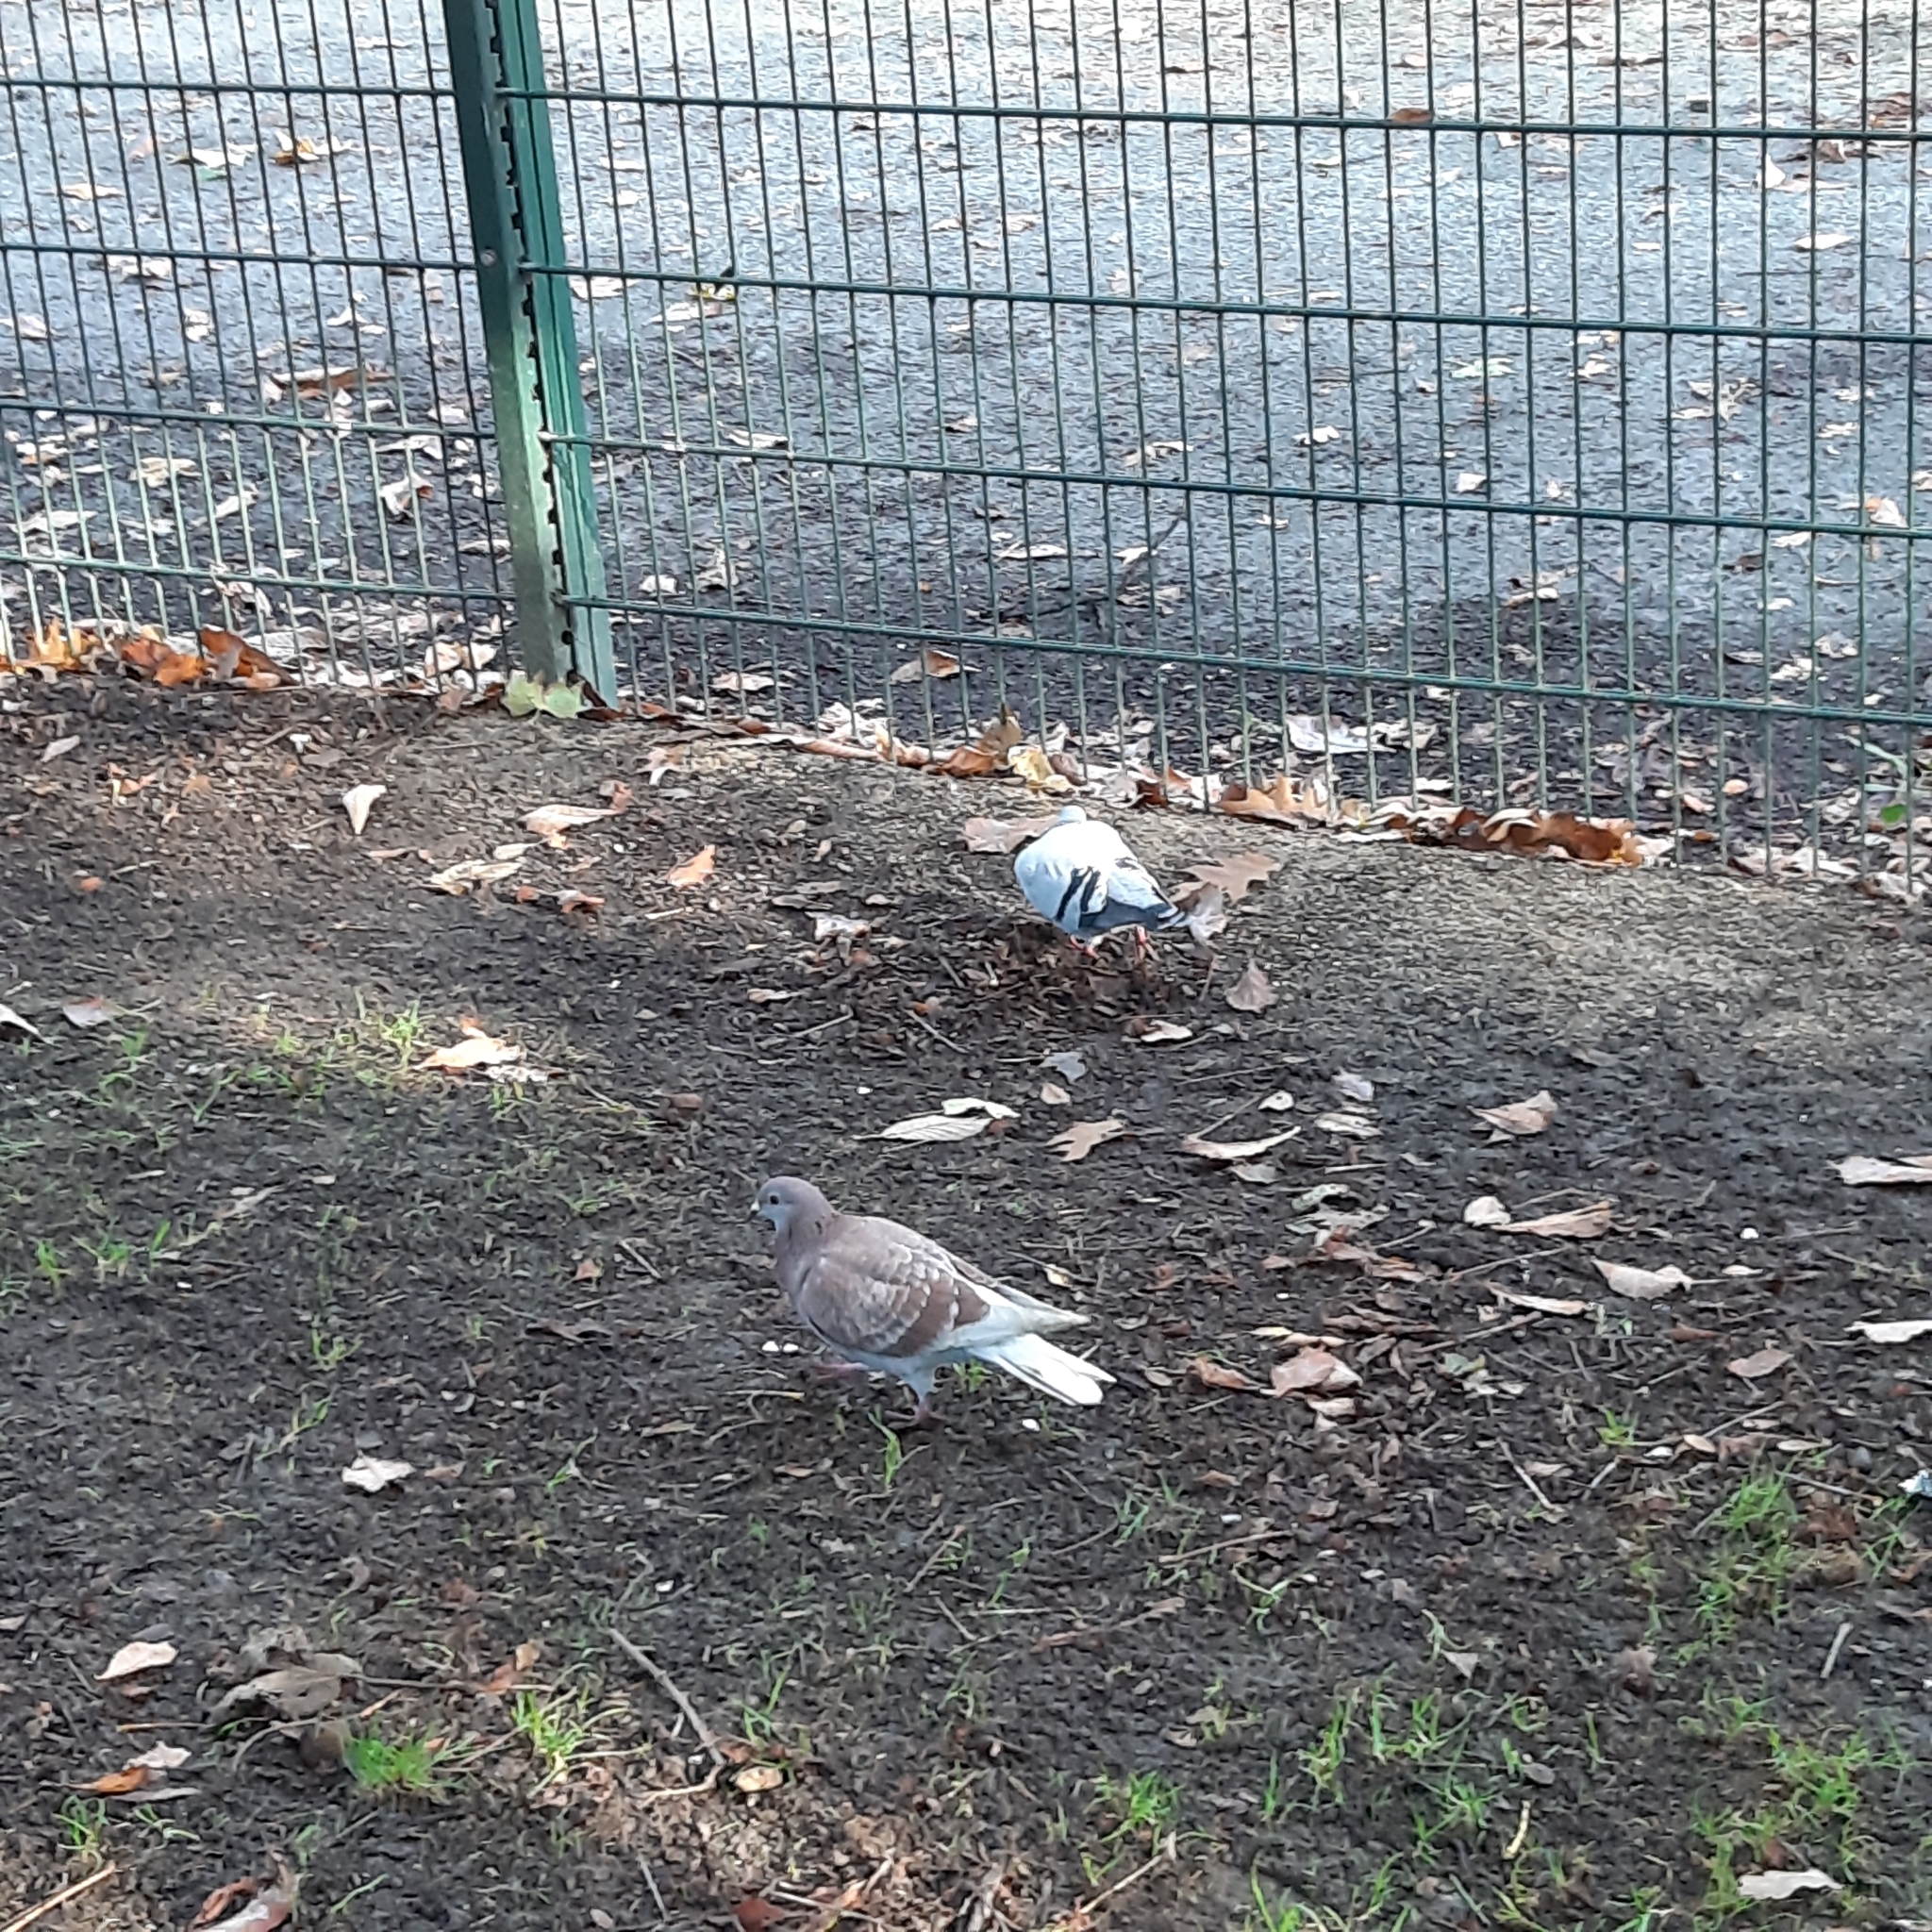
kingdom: Animalia
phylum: Chordata
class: Aves
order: Columbiformes
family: Columbidae
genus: Columba
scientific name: Columba livia
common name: Rock pigeon
